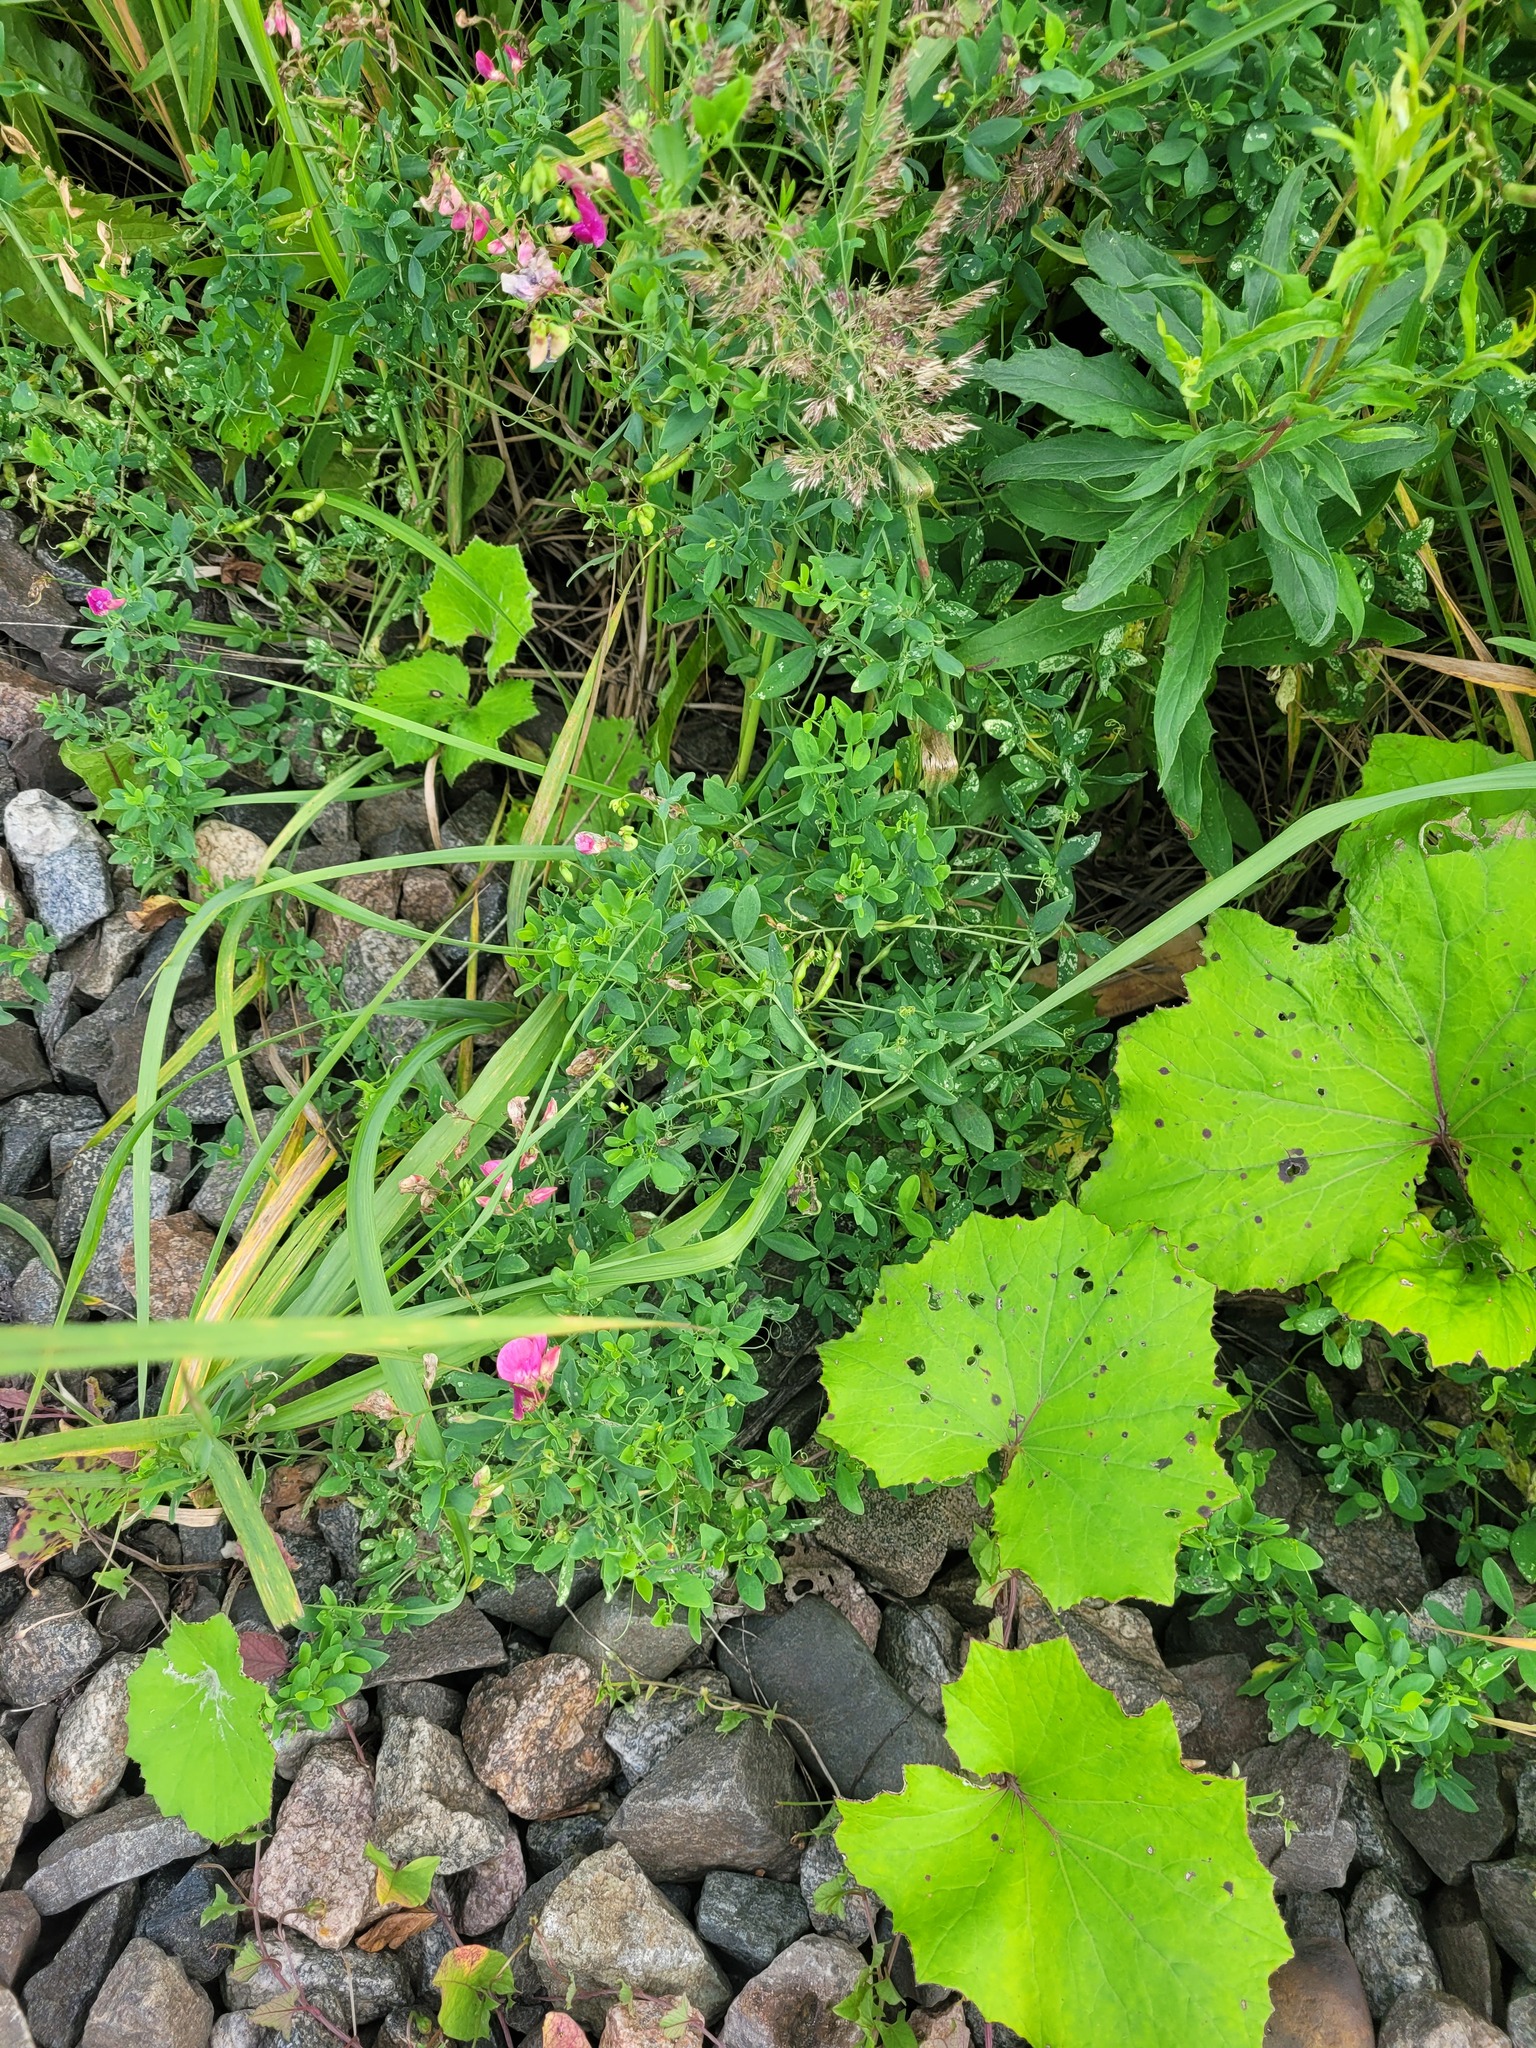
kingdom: Plantae
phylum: Tracheophyta
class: Magnoliopsida
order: Fabales
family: Fabaceae
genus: Lathyrus
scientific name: Lathyrus tuberosus
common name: Tuberous pea
